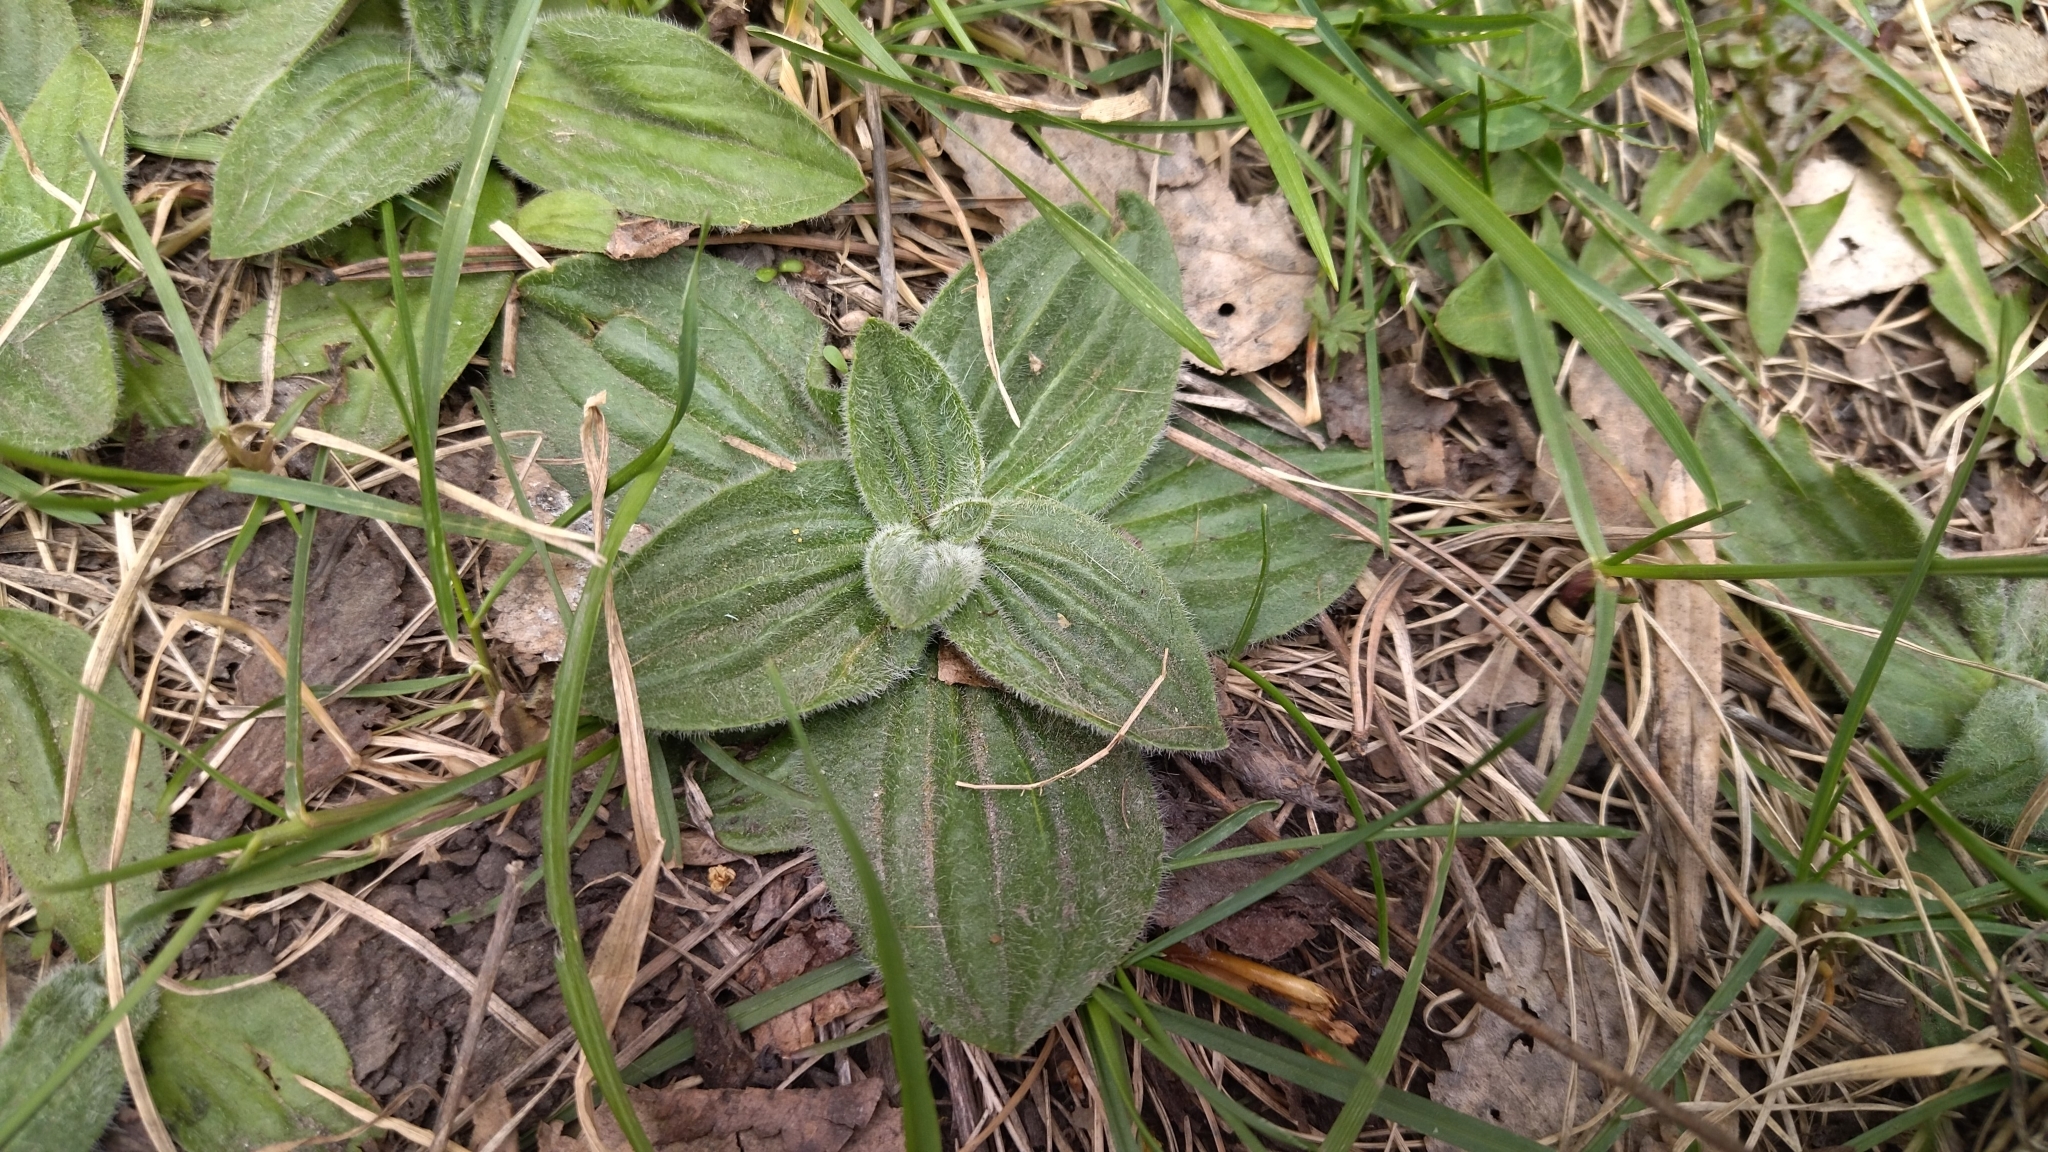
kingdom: Plantae
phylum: Tracheophyta
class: Magnoliopsida
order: Lamiales
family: Plantaginaceae
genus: Plantago
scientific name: Plantago media
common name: Hoary plantain
